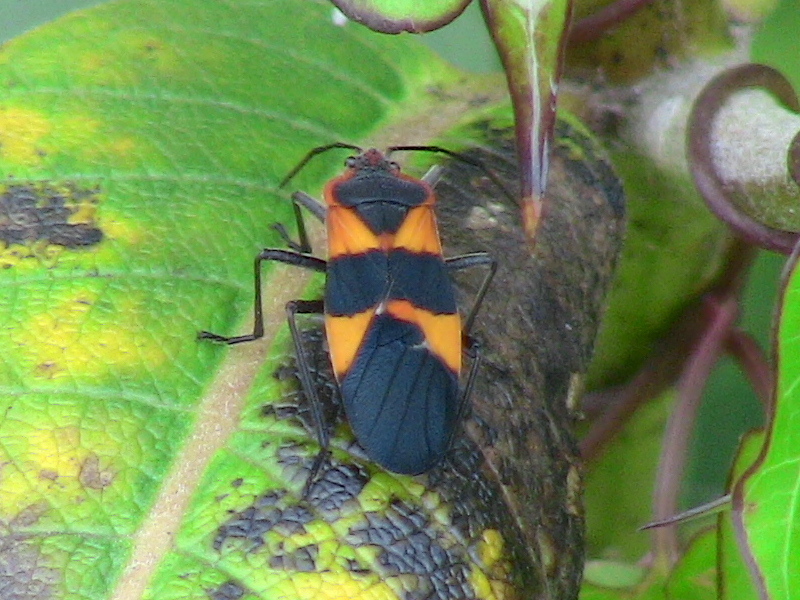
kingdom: Animalia
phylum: Arthropoda
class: Insecta
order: Hemiptera
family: Lygaeidae
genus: Oncopeltus
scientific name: Oncopeltus fasciatus
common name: Large milkweed bug
